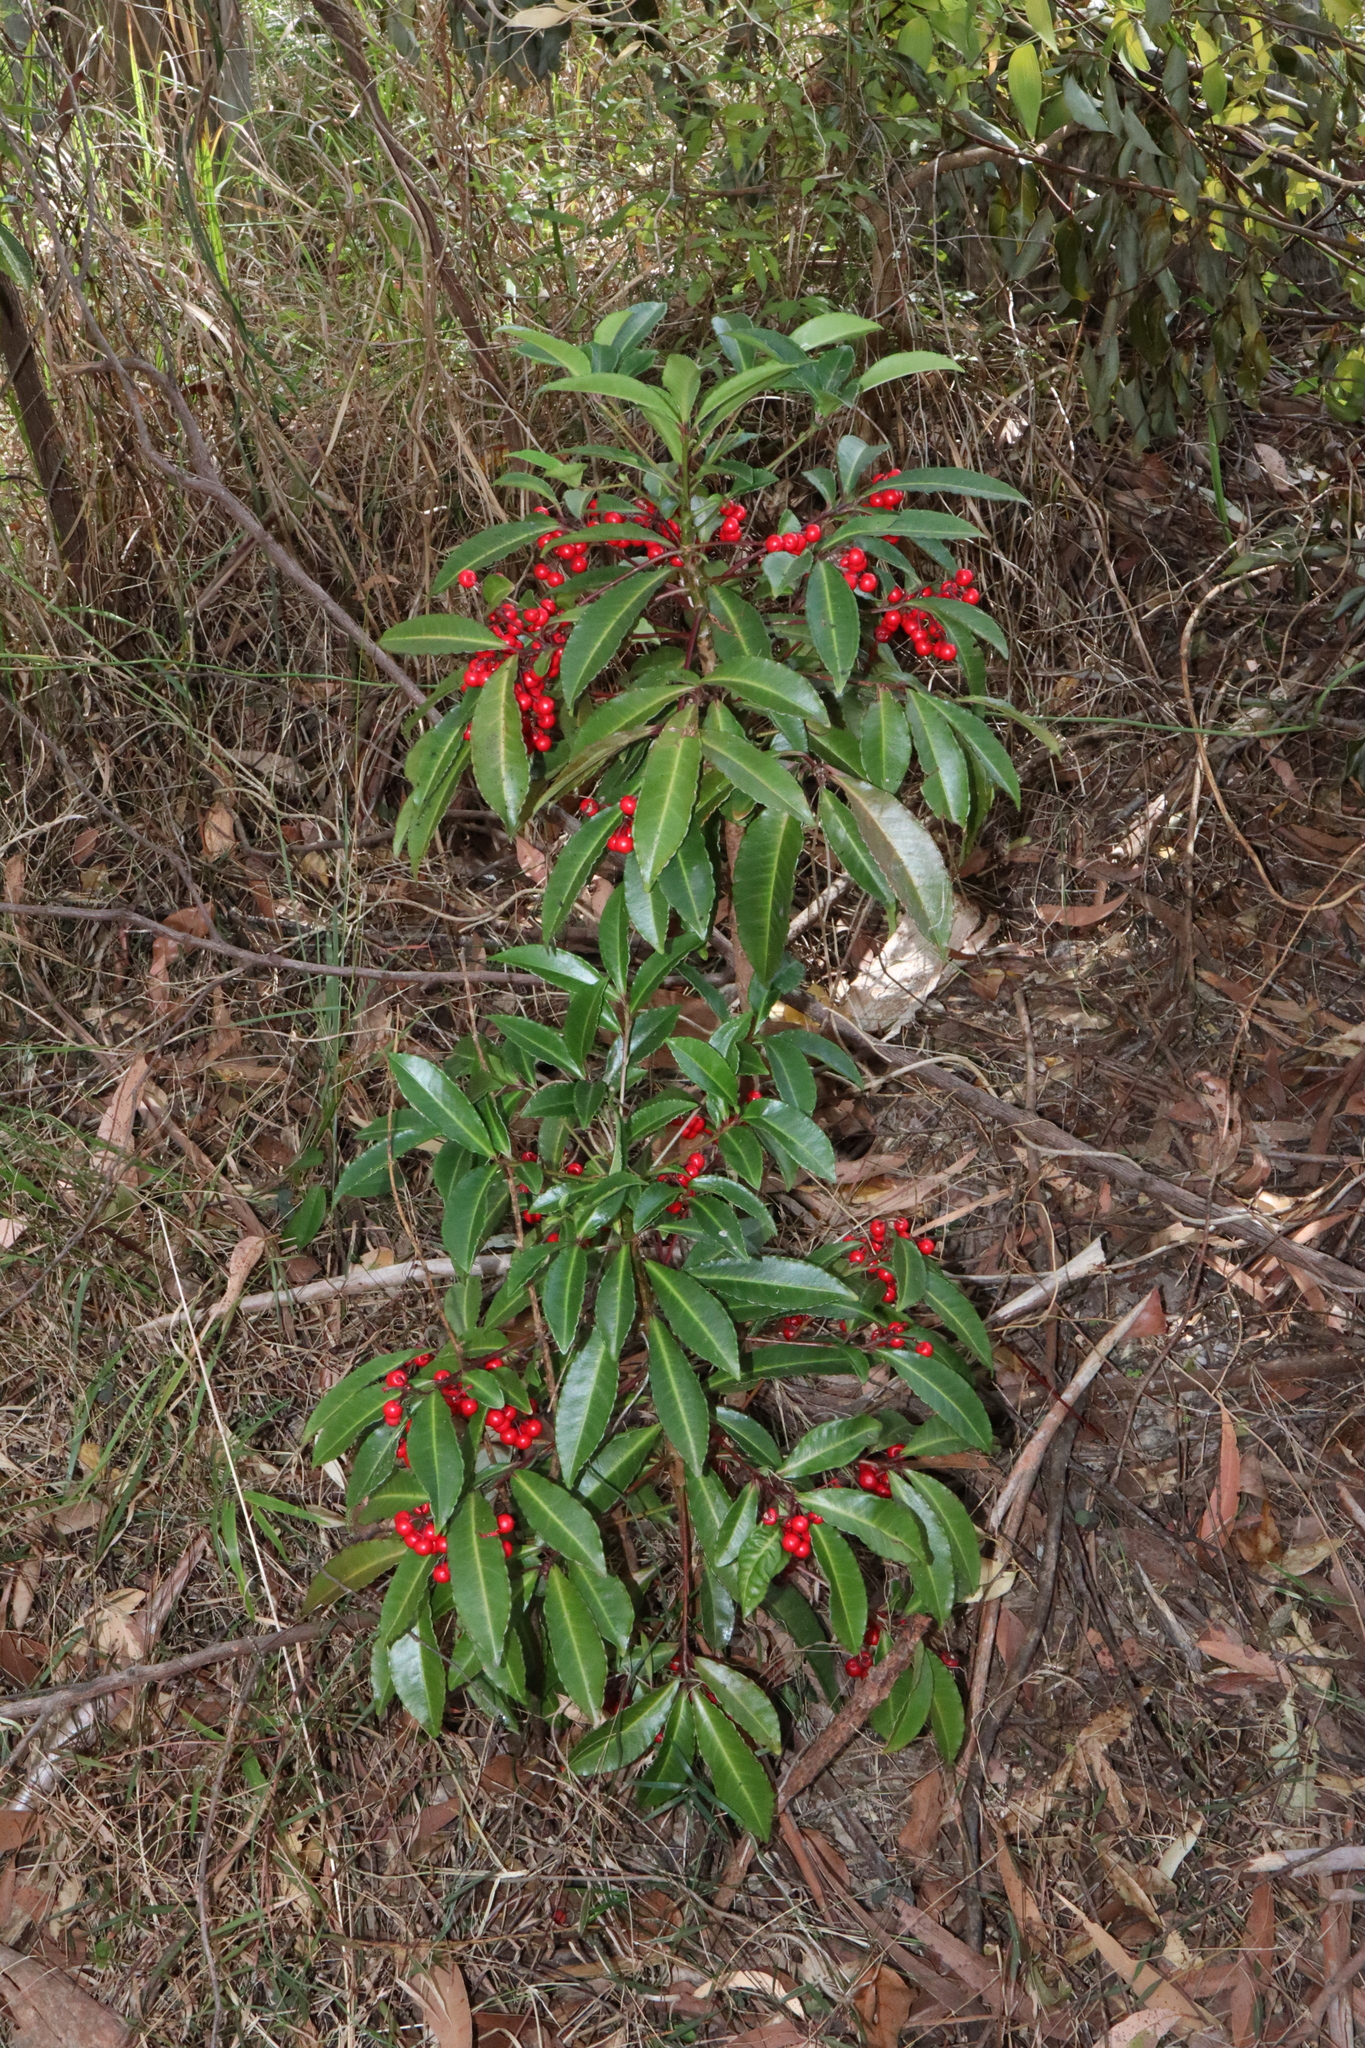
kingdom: Plantae
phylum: Tracheophyta
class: Magnoliopsida
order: Ericales
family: Primulaceae
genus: Ardisia
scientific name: Ardisia crenata
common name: Hen's eyes
